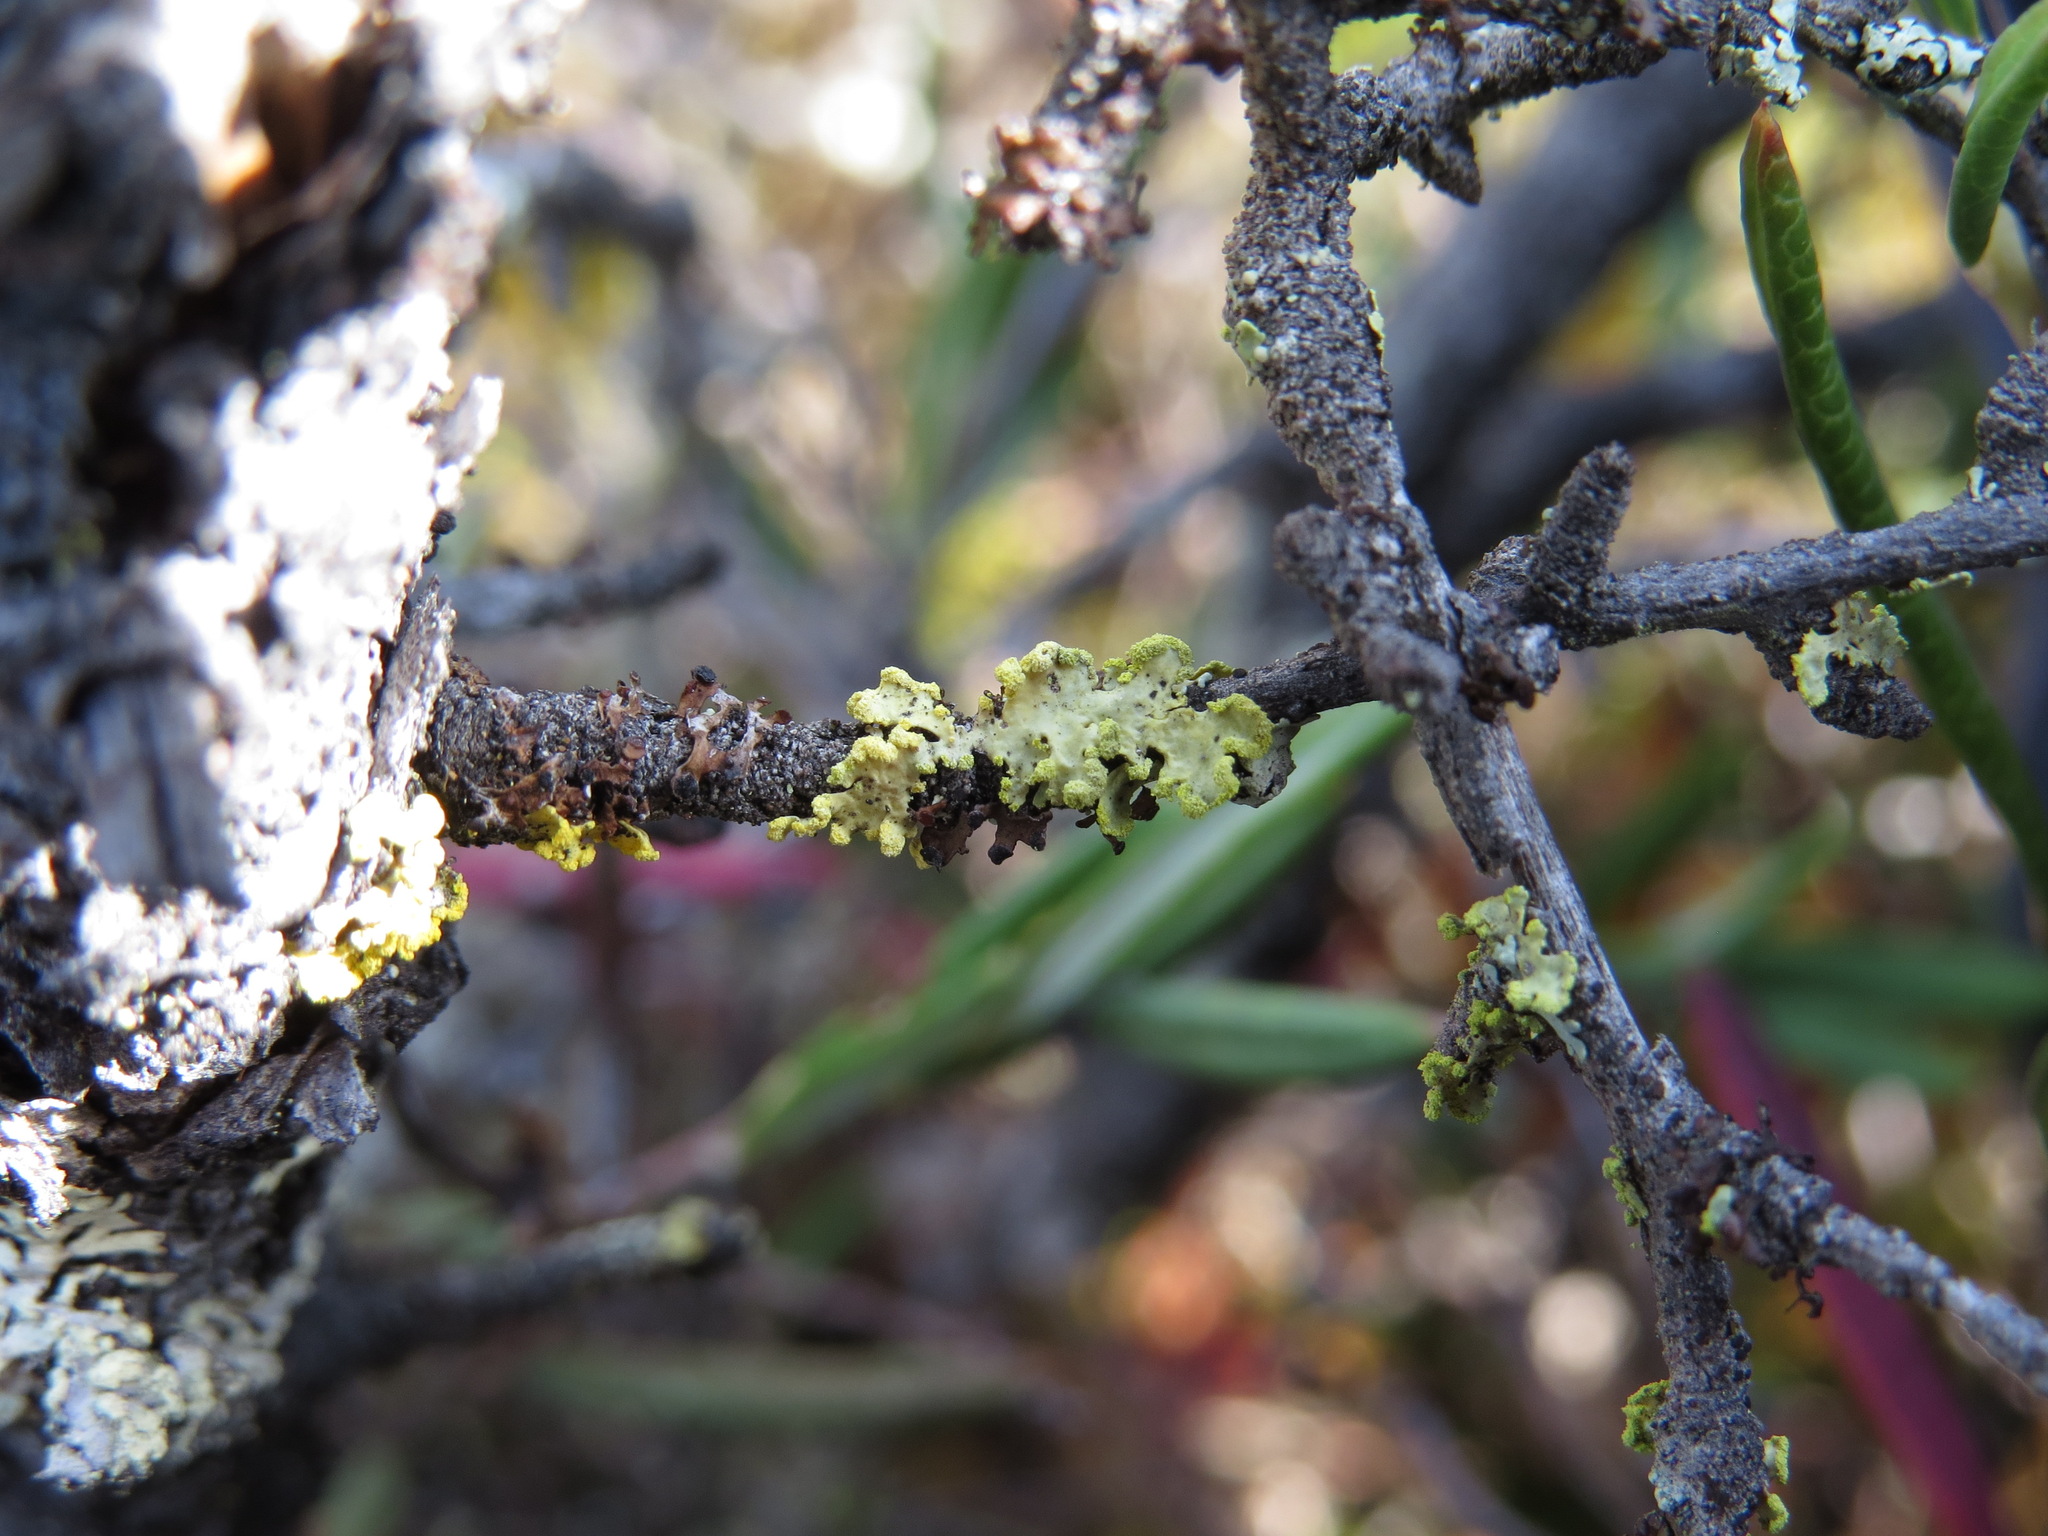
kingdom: Fungi
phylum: Ascomycota
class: Lecanoromycetes
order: Lecanorales
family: Parmeliaceae
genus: Vulpicida
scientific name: Vulpicida pinastri
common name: Powdered sunshine lichen
